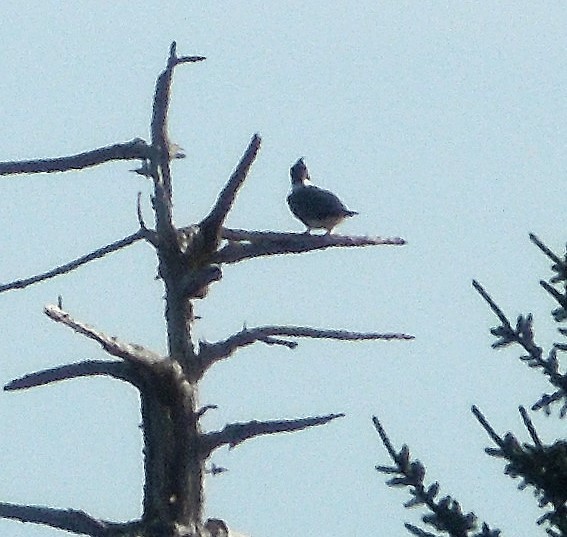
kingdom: Animalia
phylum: Chordata
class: Aves
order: Coraciiformes
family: Alcedinidae
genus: Megaceryle
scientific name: Megaceryle alcyon
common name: Belted kingfisher
